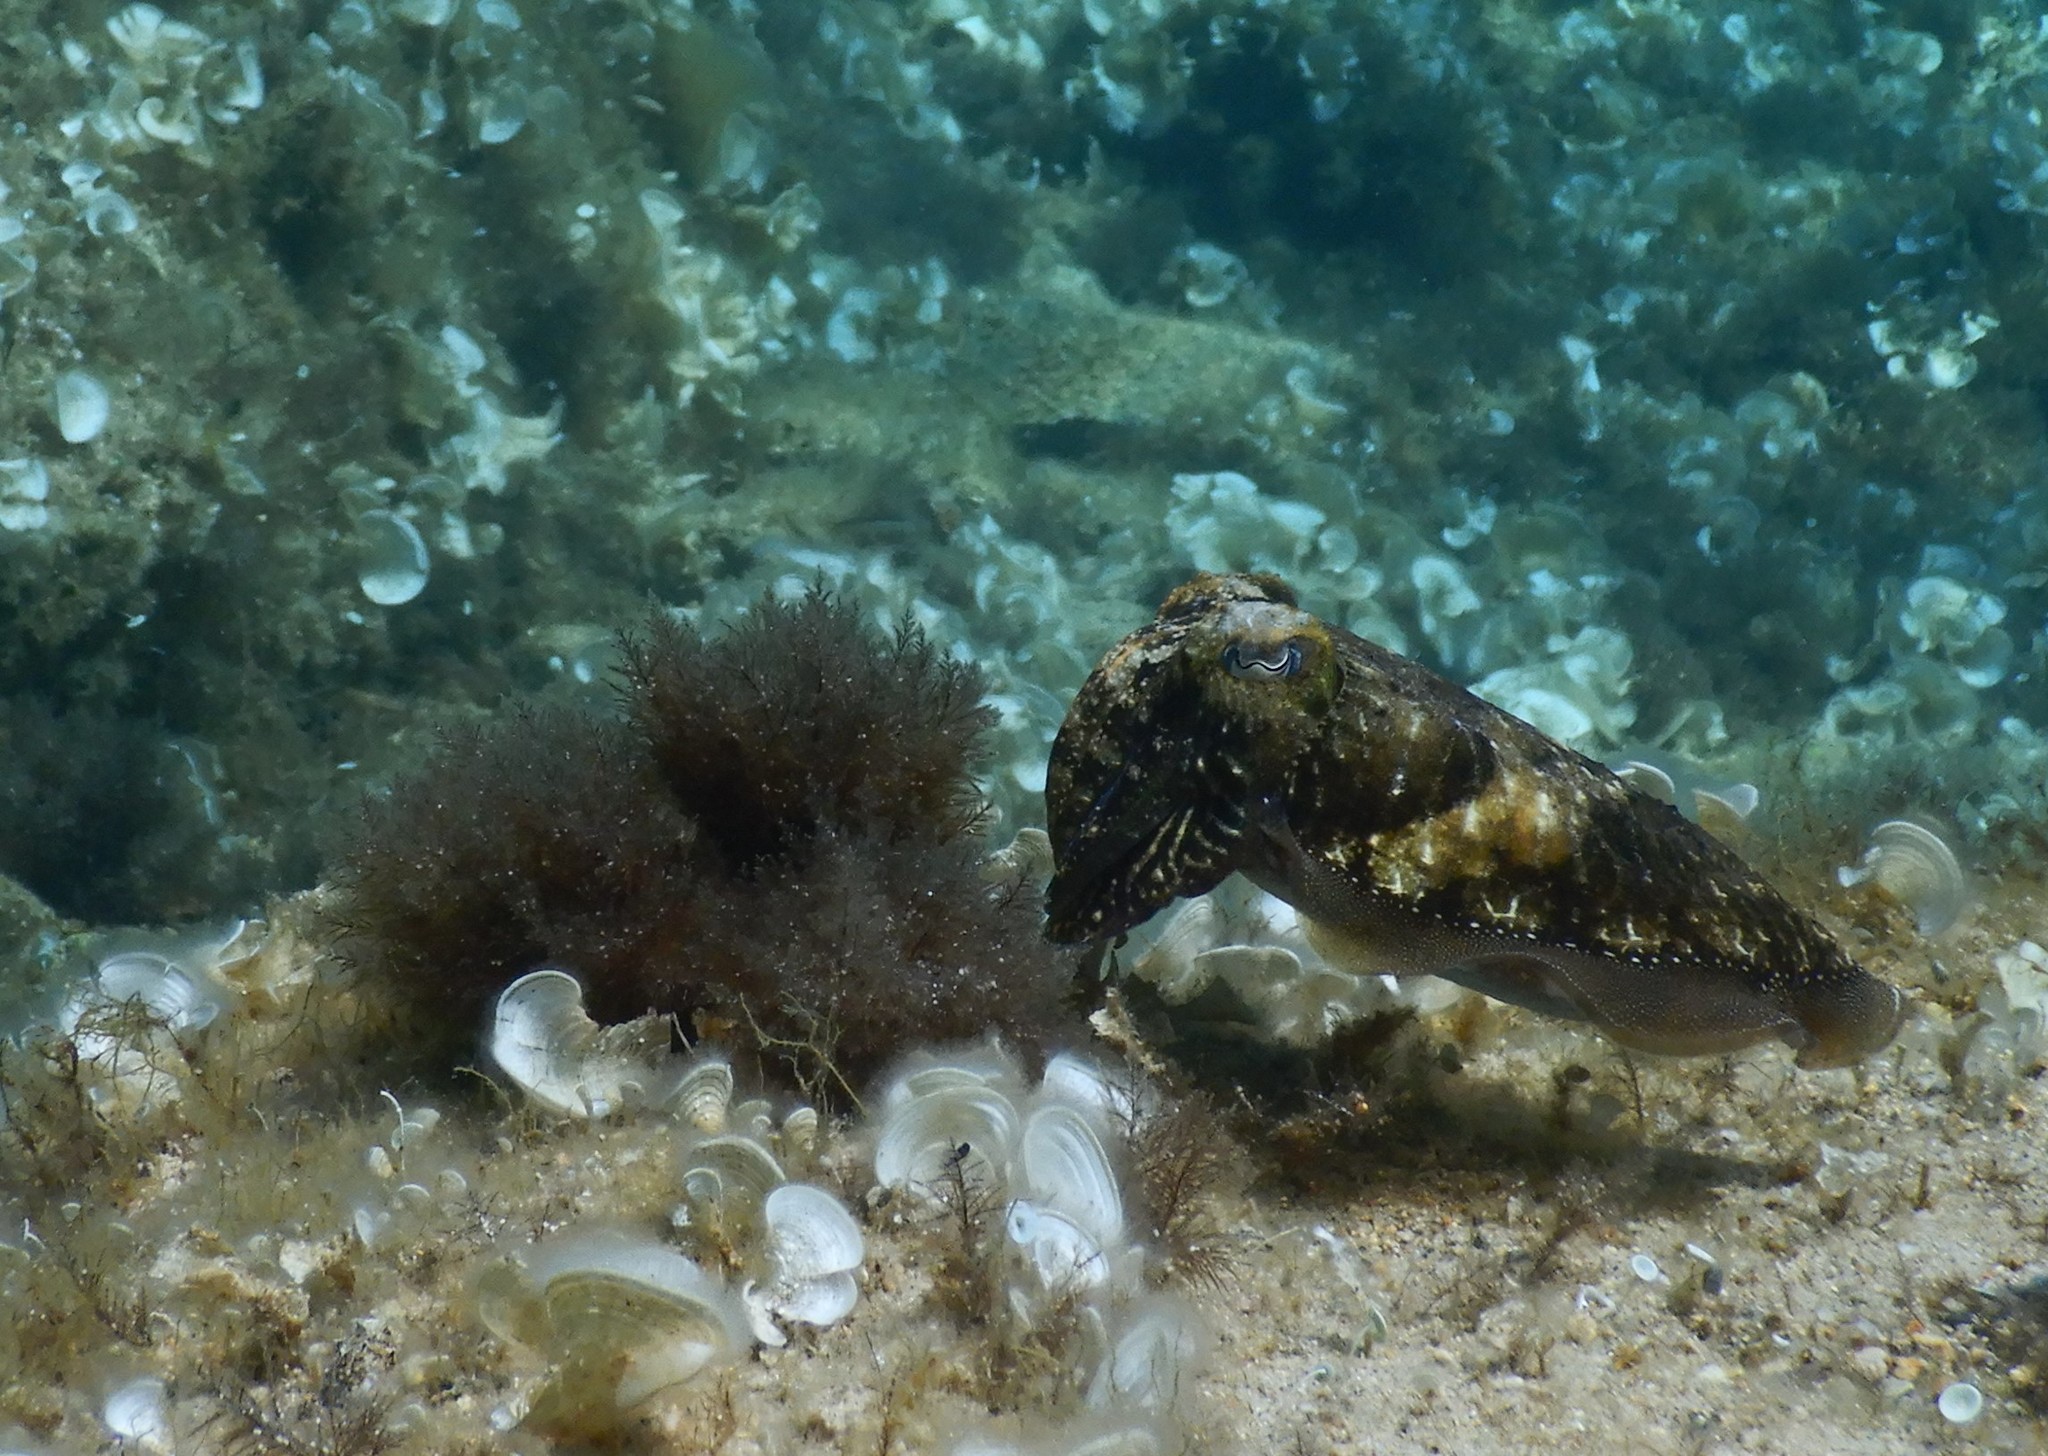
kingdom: Animalia
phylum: Mollusca
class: Cephalopoda
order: Sepiida
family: Sepiidae
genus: Sepia
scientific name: Sepia officinalis
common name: Common cuttlefish
